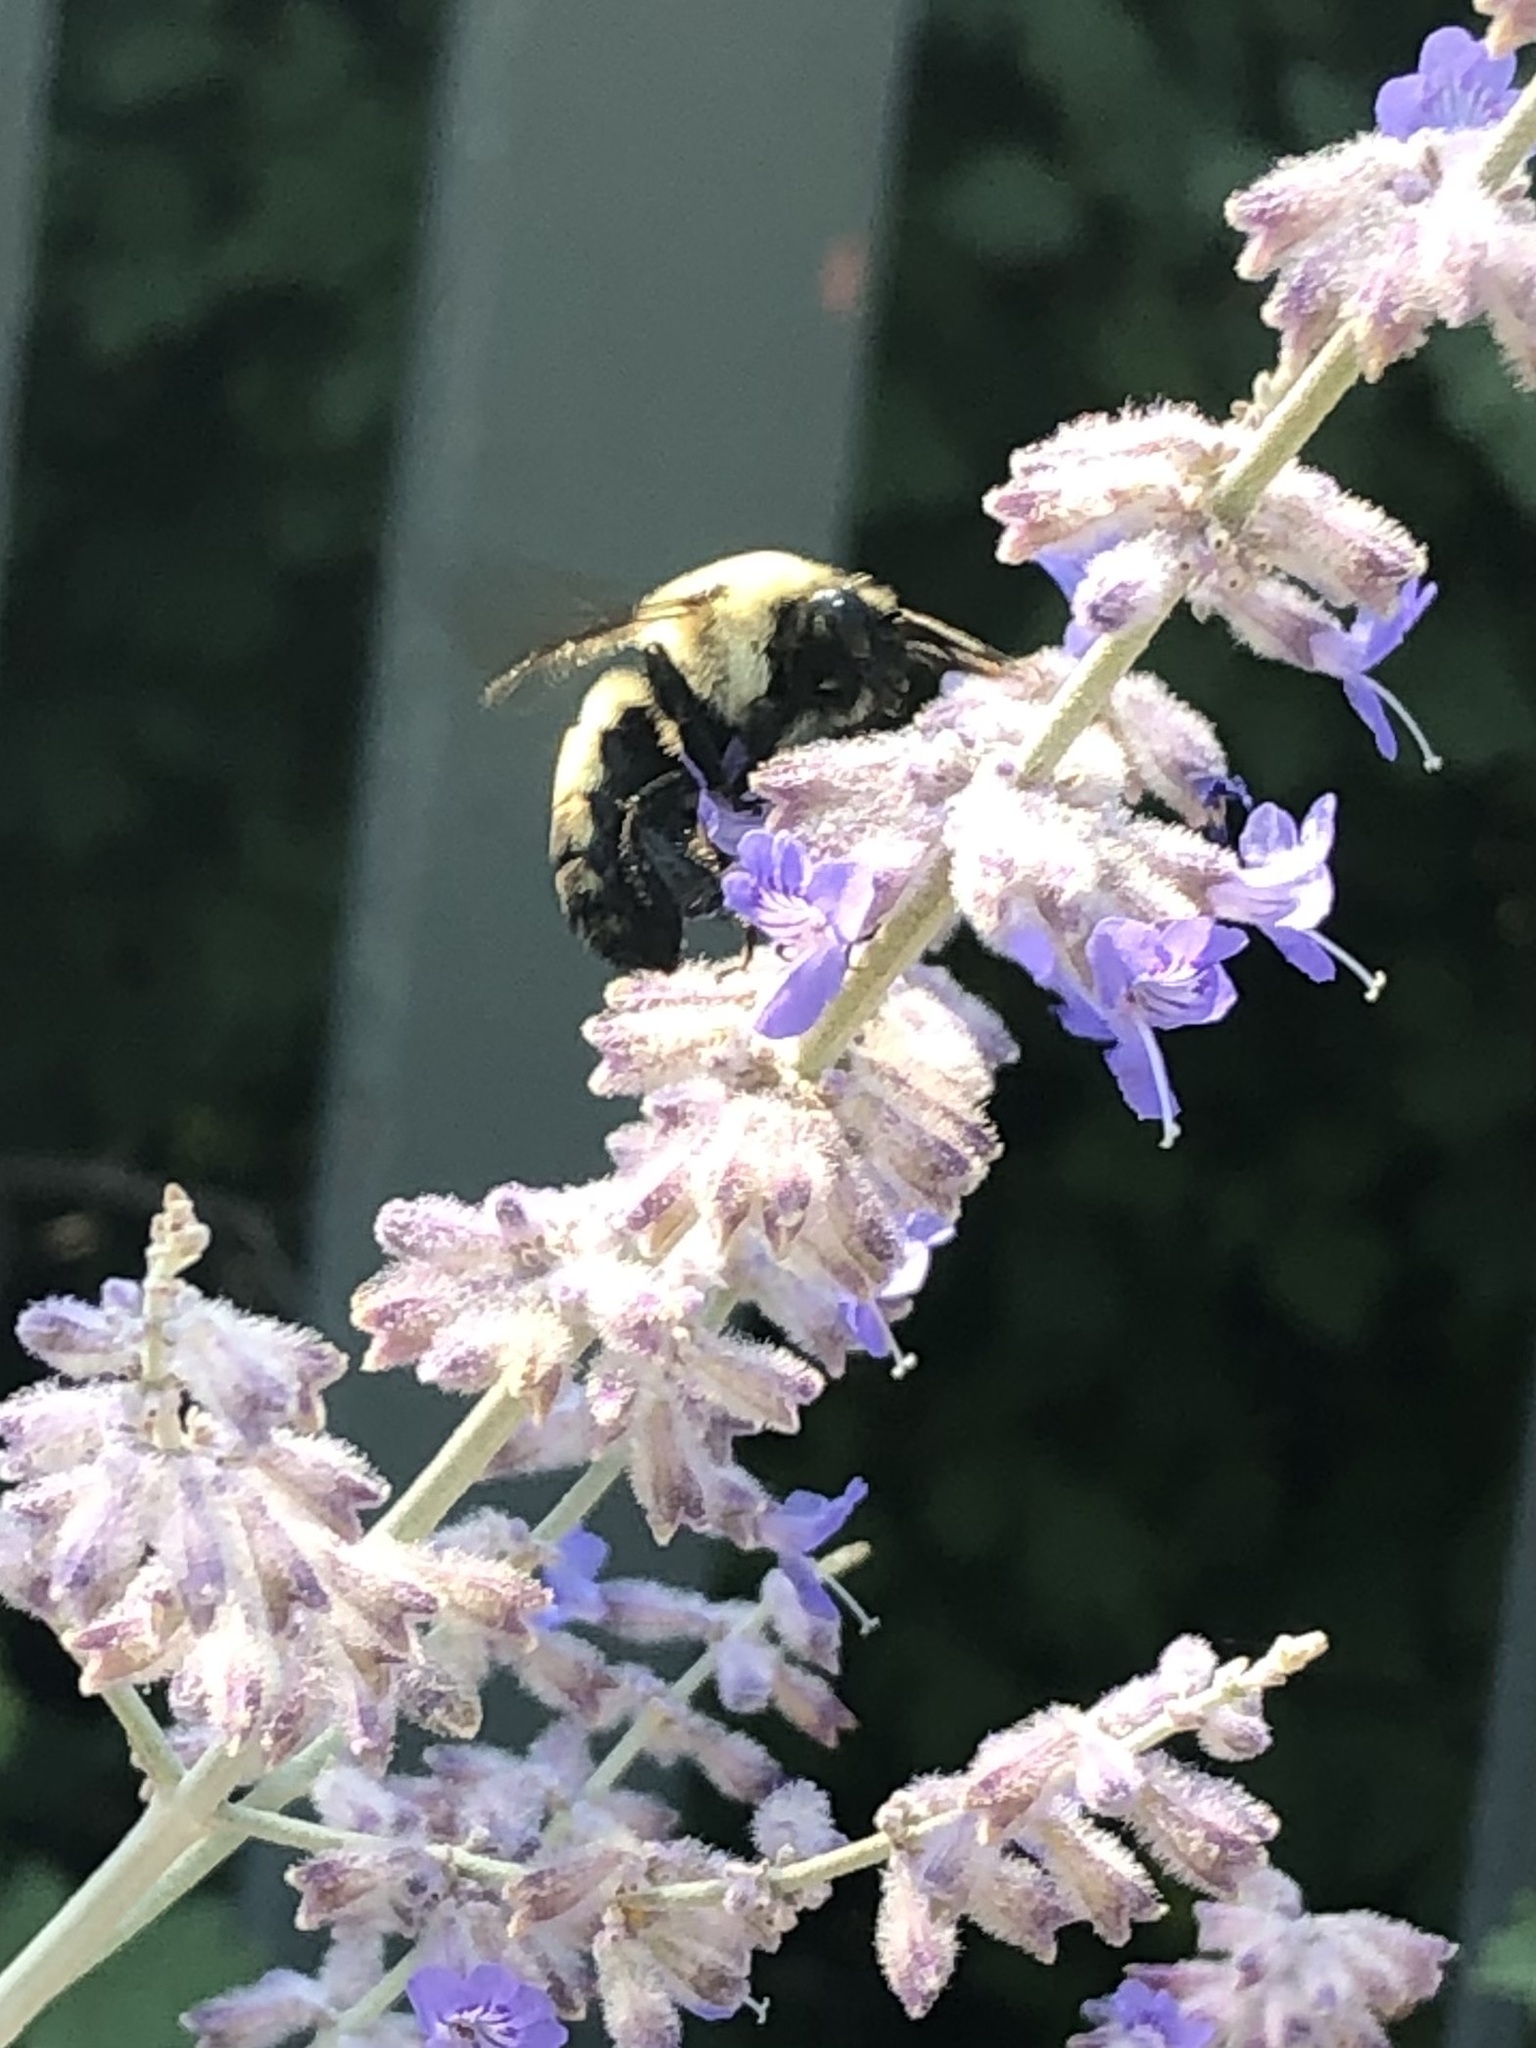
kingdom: Animalia
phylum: Arthropoda
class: Insecta
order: Hymenoptera
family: Apidae
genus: Bombus
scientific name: Bombus griseocollis
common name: Brown-belted bumble bee
